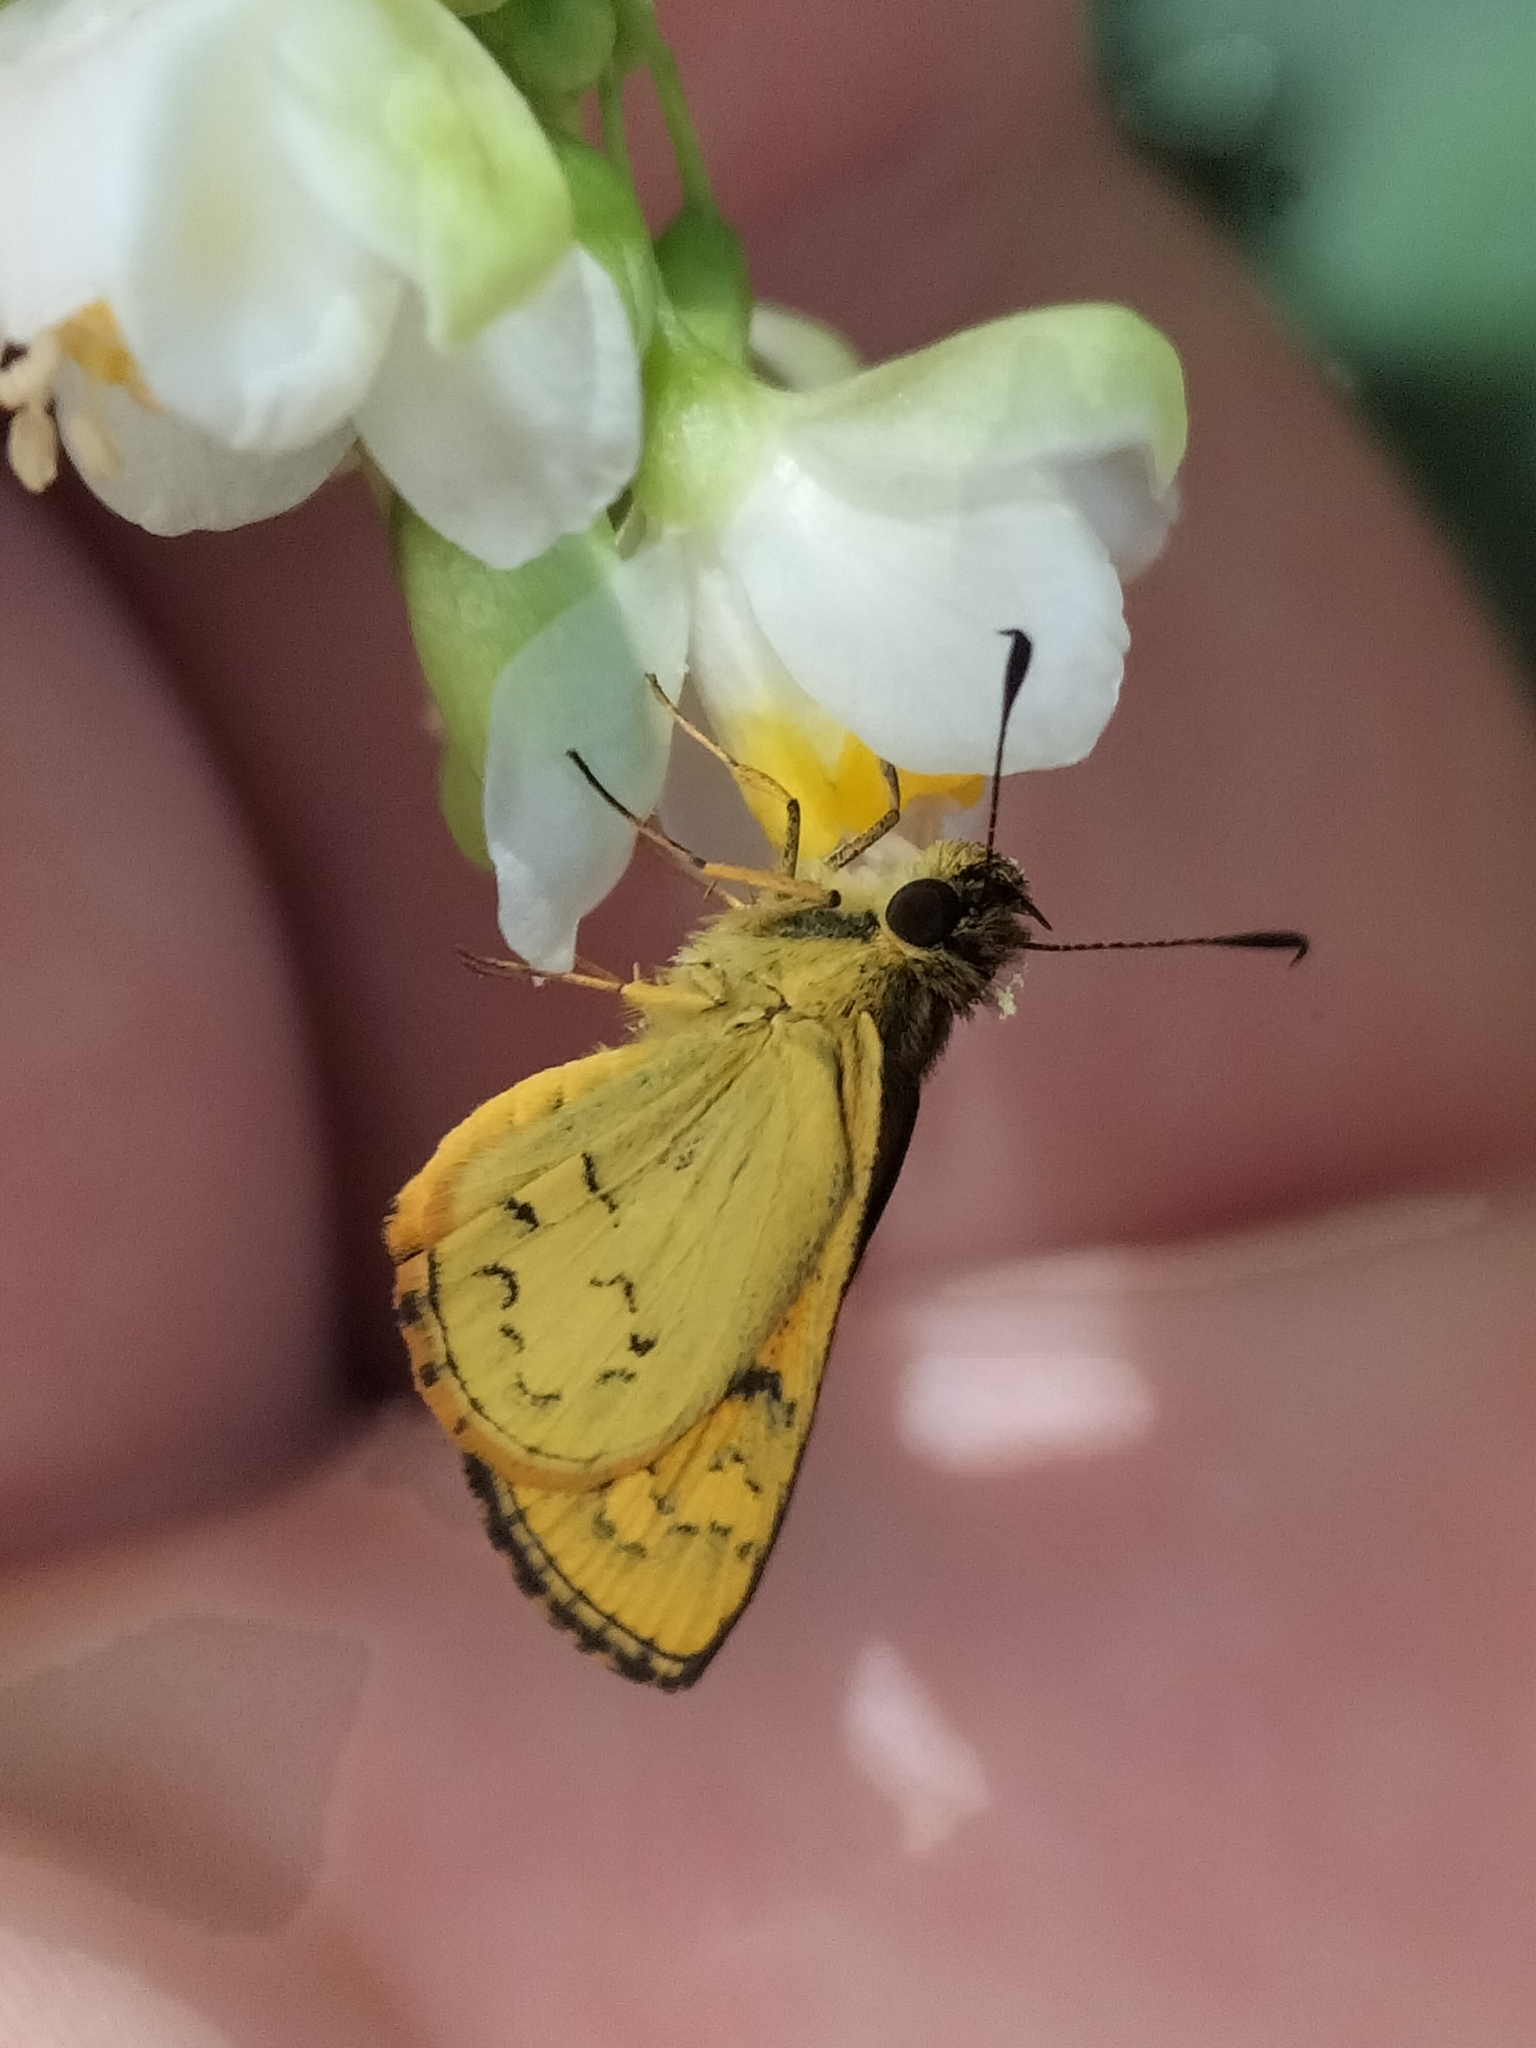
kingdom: Animalia
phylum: Arthropoda
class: Insecta
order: Lepidoptera
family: Hesperiidae
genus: Ocybadistes
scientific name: Ocybadistes ardea
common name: Dark orange dart
